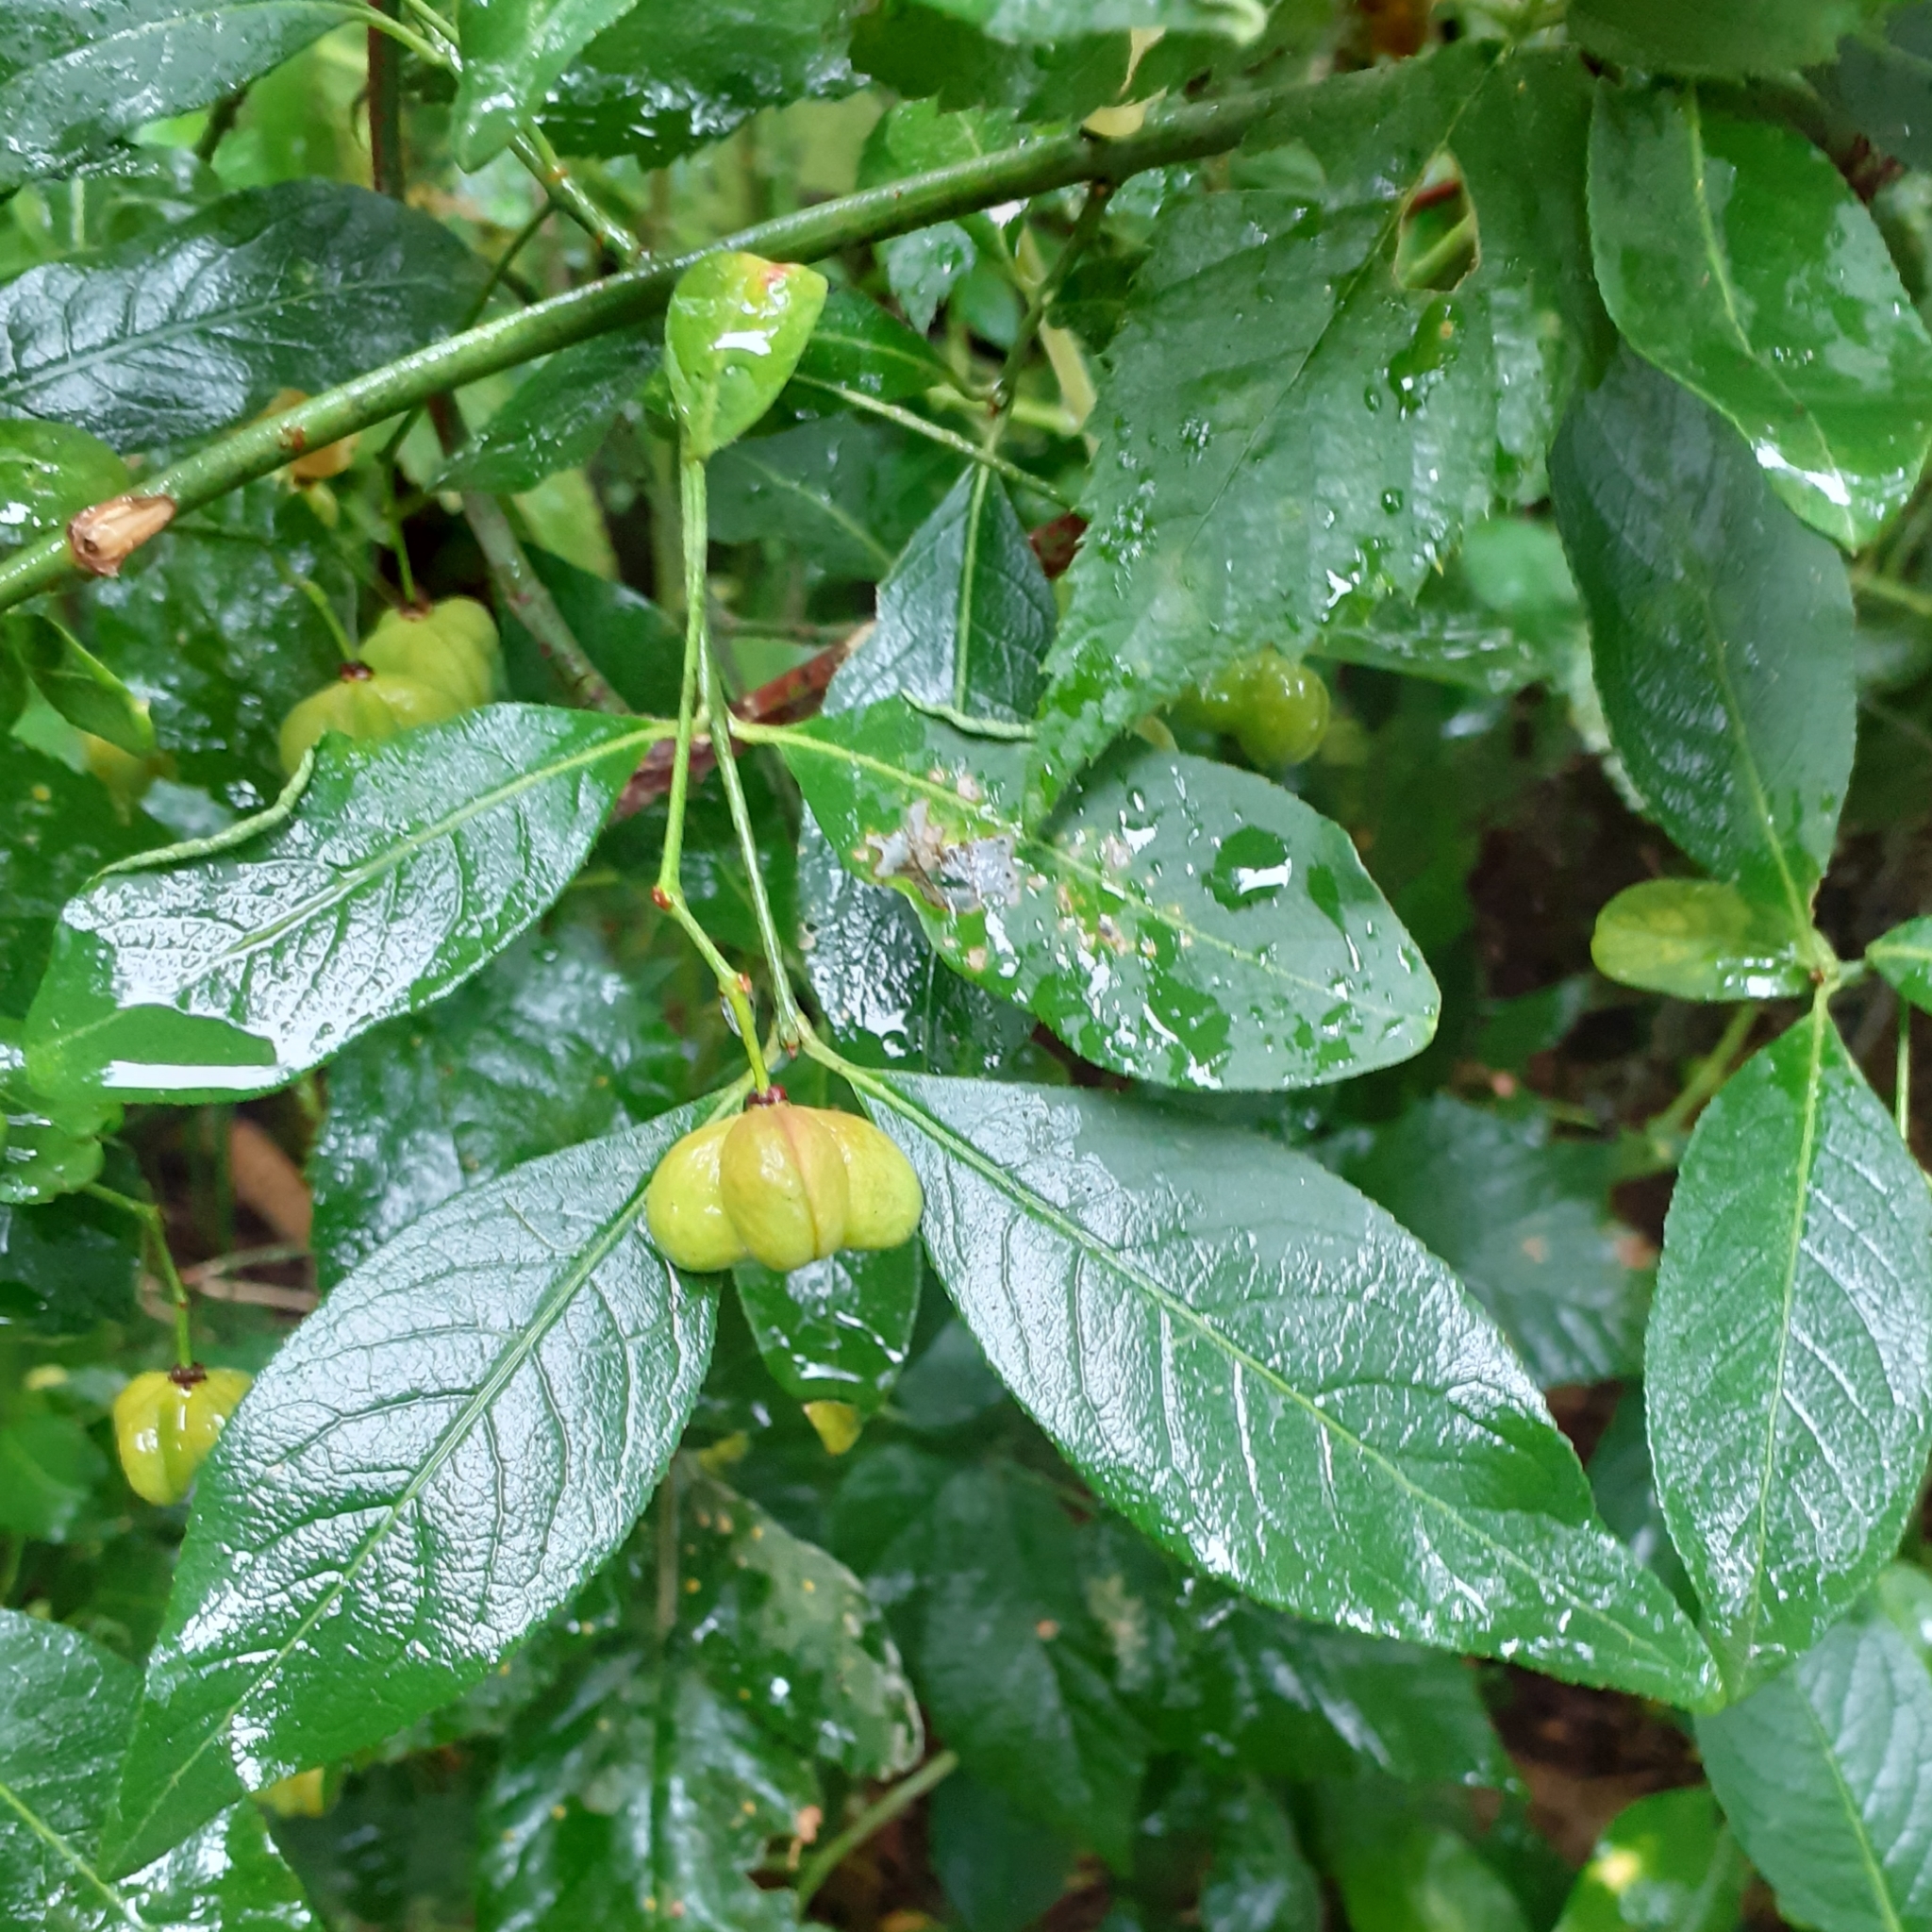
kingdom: Plantae
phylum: Tracheophyta
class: Magnoliopsida
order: Celastrales
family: Celastraceae
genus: Euonymus
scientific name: Euonymus europaeus
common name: Spindle
